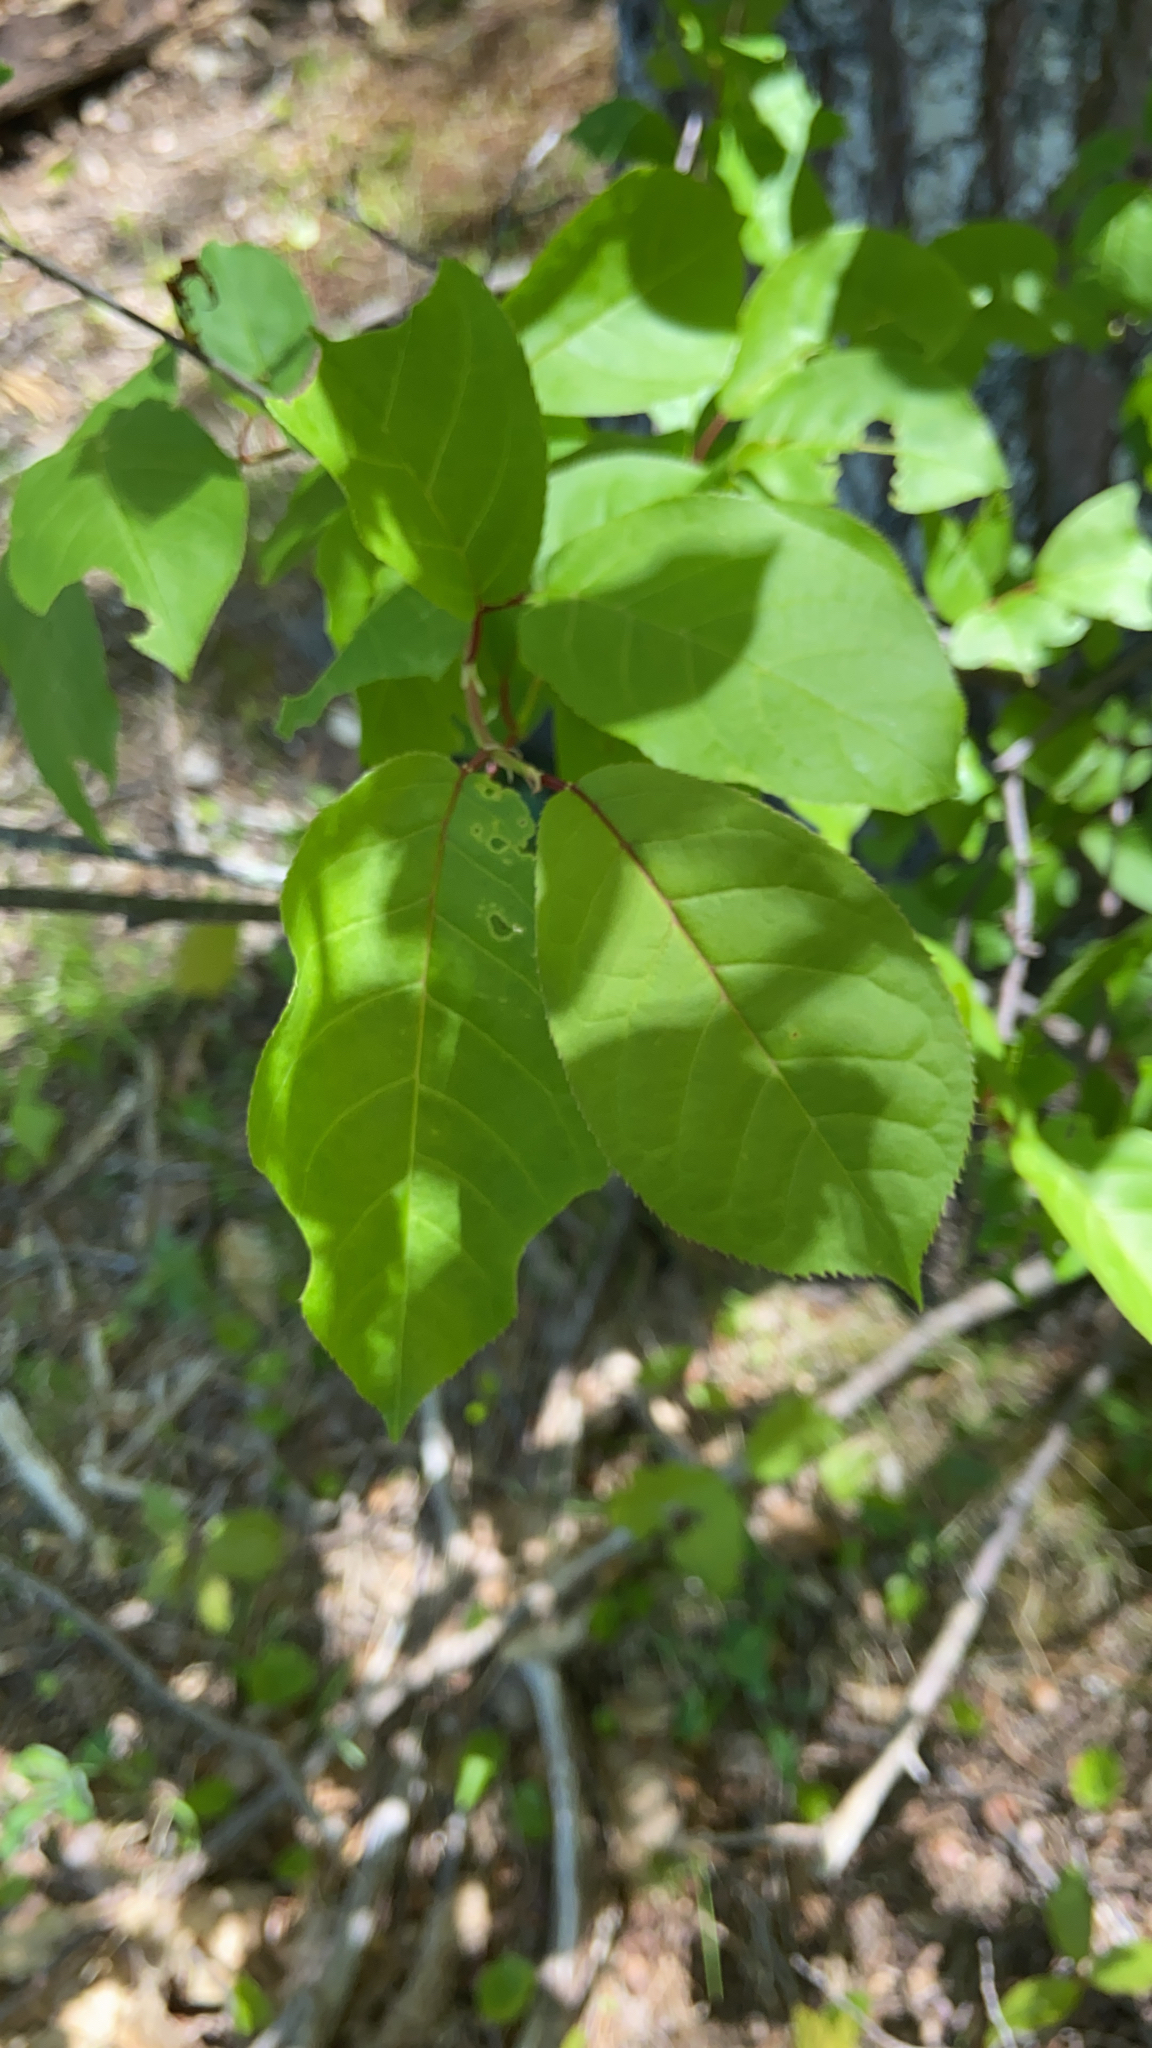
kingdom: Plantae
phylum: Tracheophyta
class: Magnoliopsida
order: Rosales
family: Rosaceae
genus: Prunus
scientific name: Prunus virginiana
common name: Chokecherry
